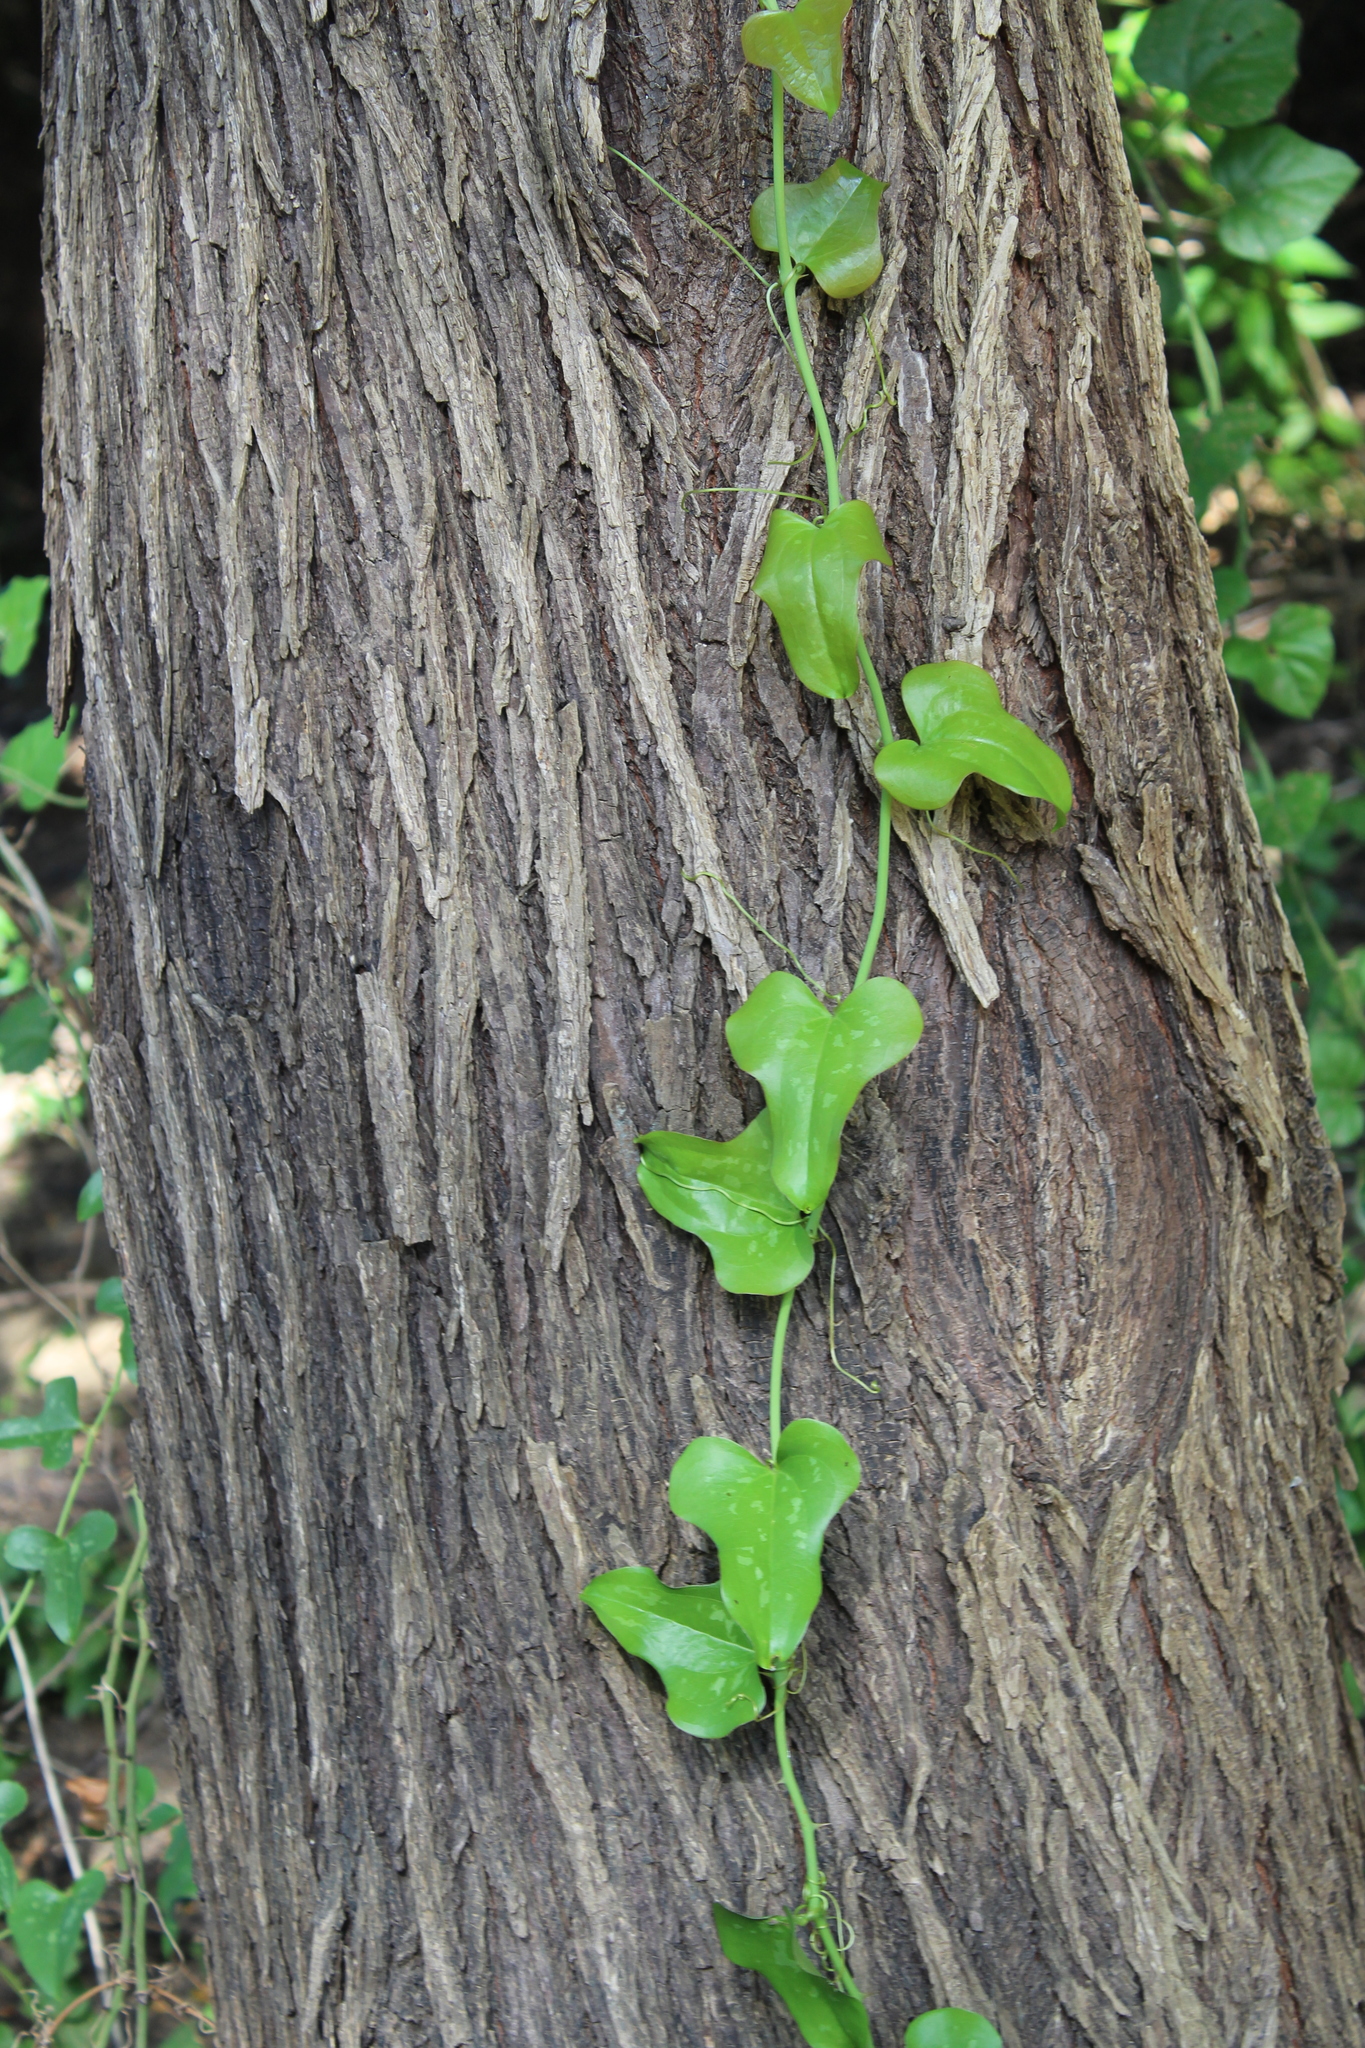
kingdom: Plantae
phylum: Tracheophyta
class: Liliopsida
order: Liliales
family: Smilacaceae
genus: Smilax
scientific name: Smilax bona-nox
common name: Catbrier
